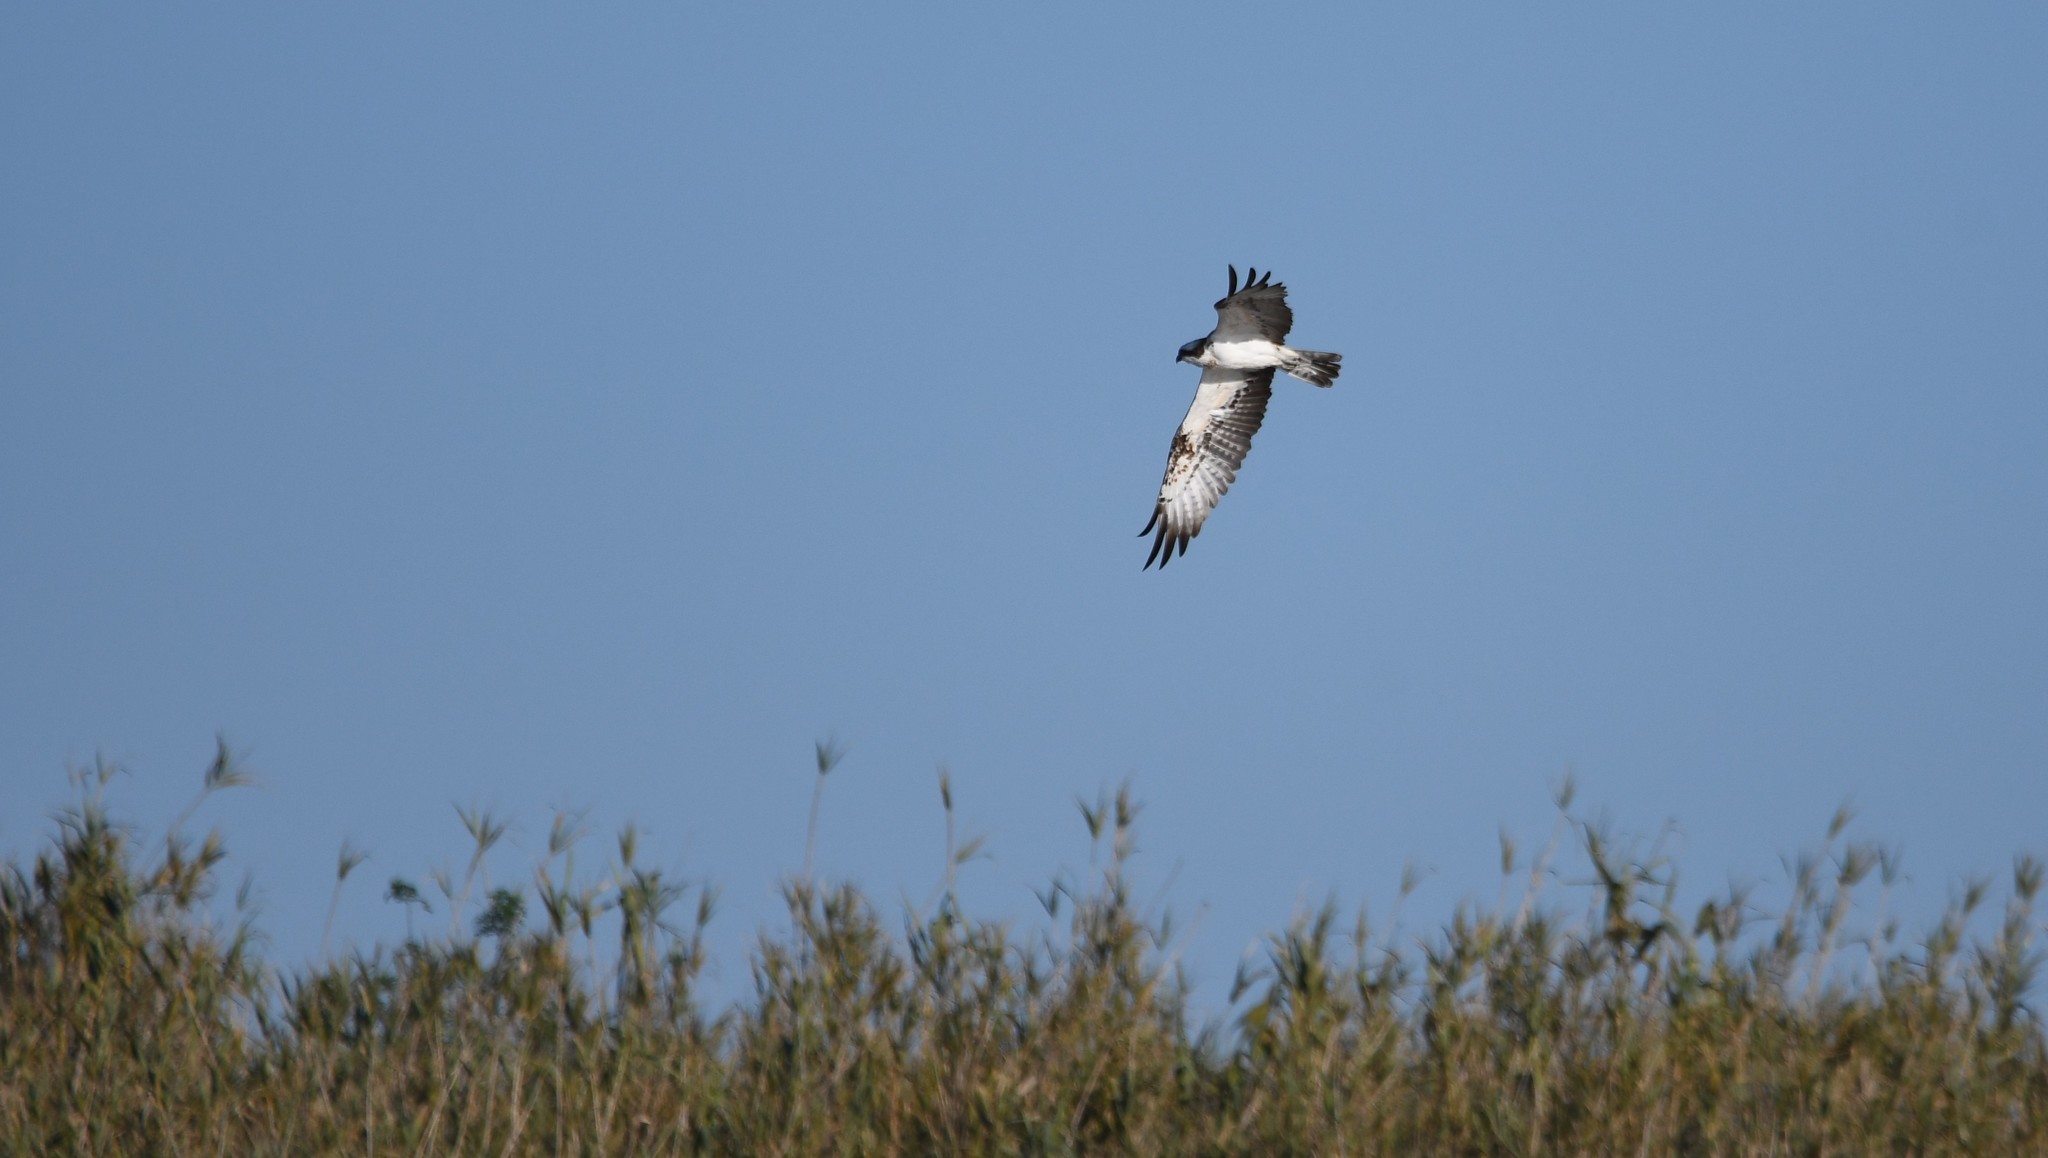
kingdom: Animalia
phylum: Chordata
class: Aves
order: Accipitriformes
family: Pandionidae
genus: Pandion
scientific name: Pandion haliaetus
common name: Osprey
